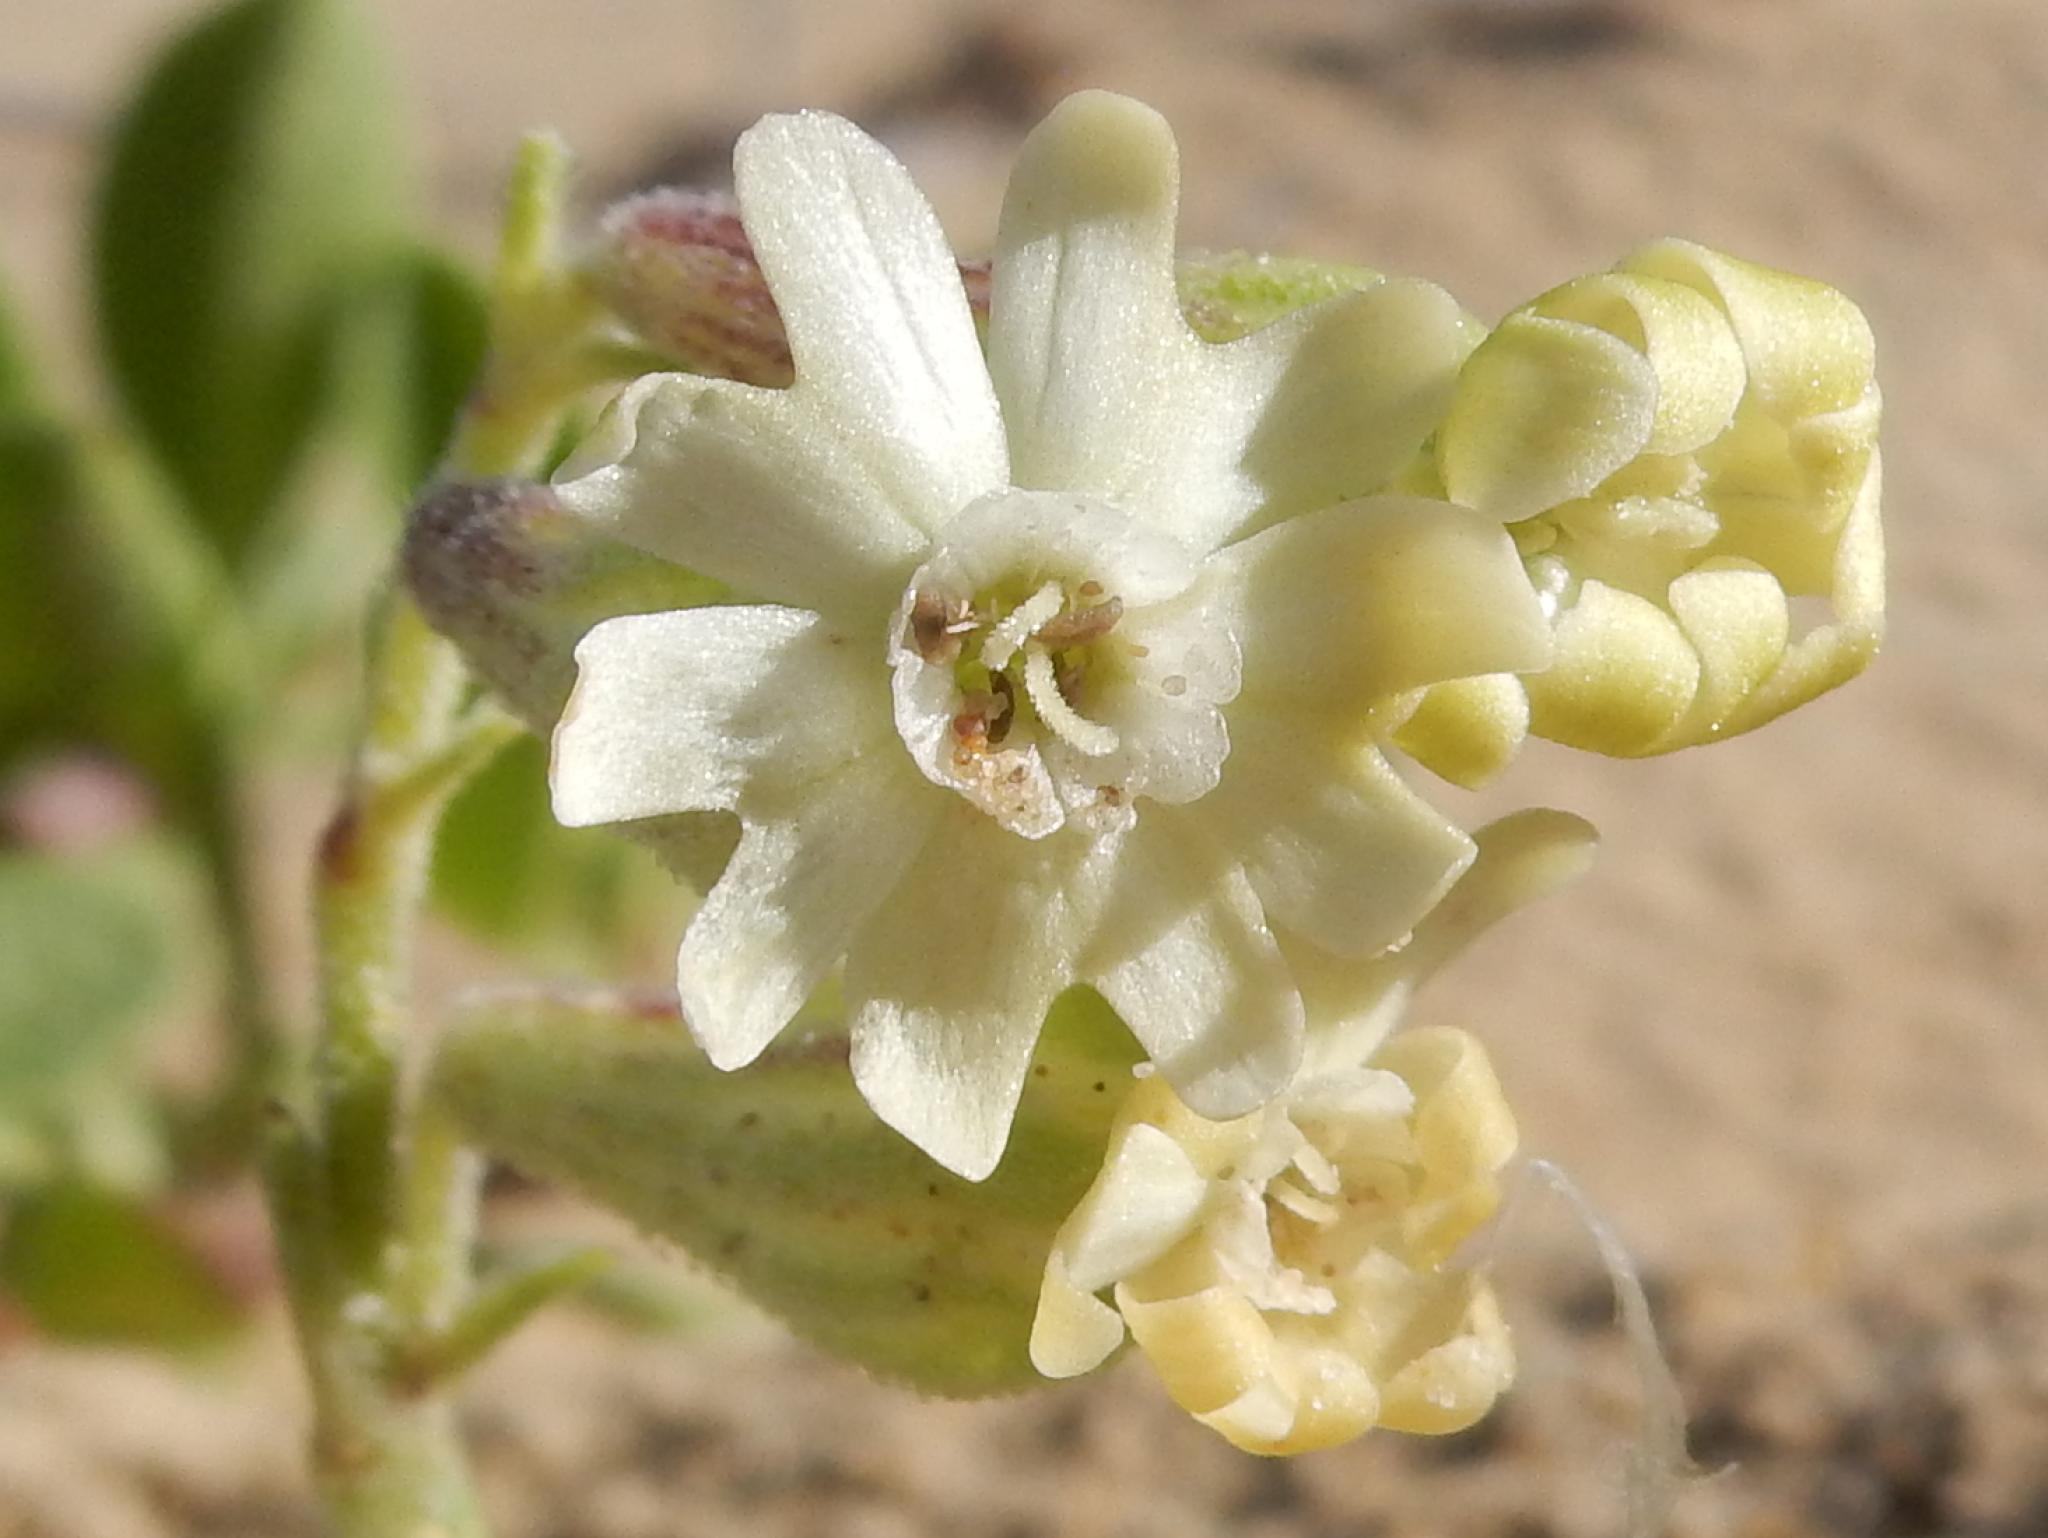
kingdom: Plantae
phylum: Tracheophyta
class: Magnoliopsida
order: Caryophyllales
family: Caryophyllaceae
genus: Silene
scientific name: Silene crassifolia
